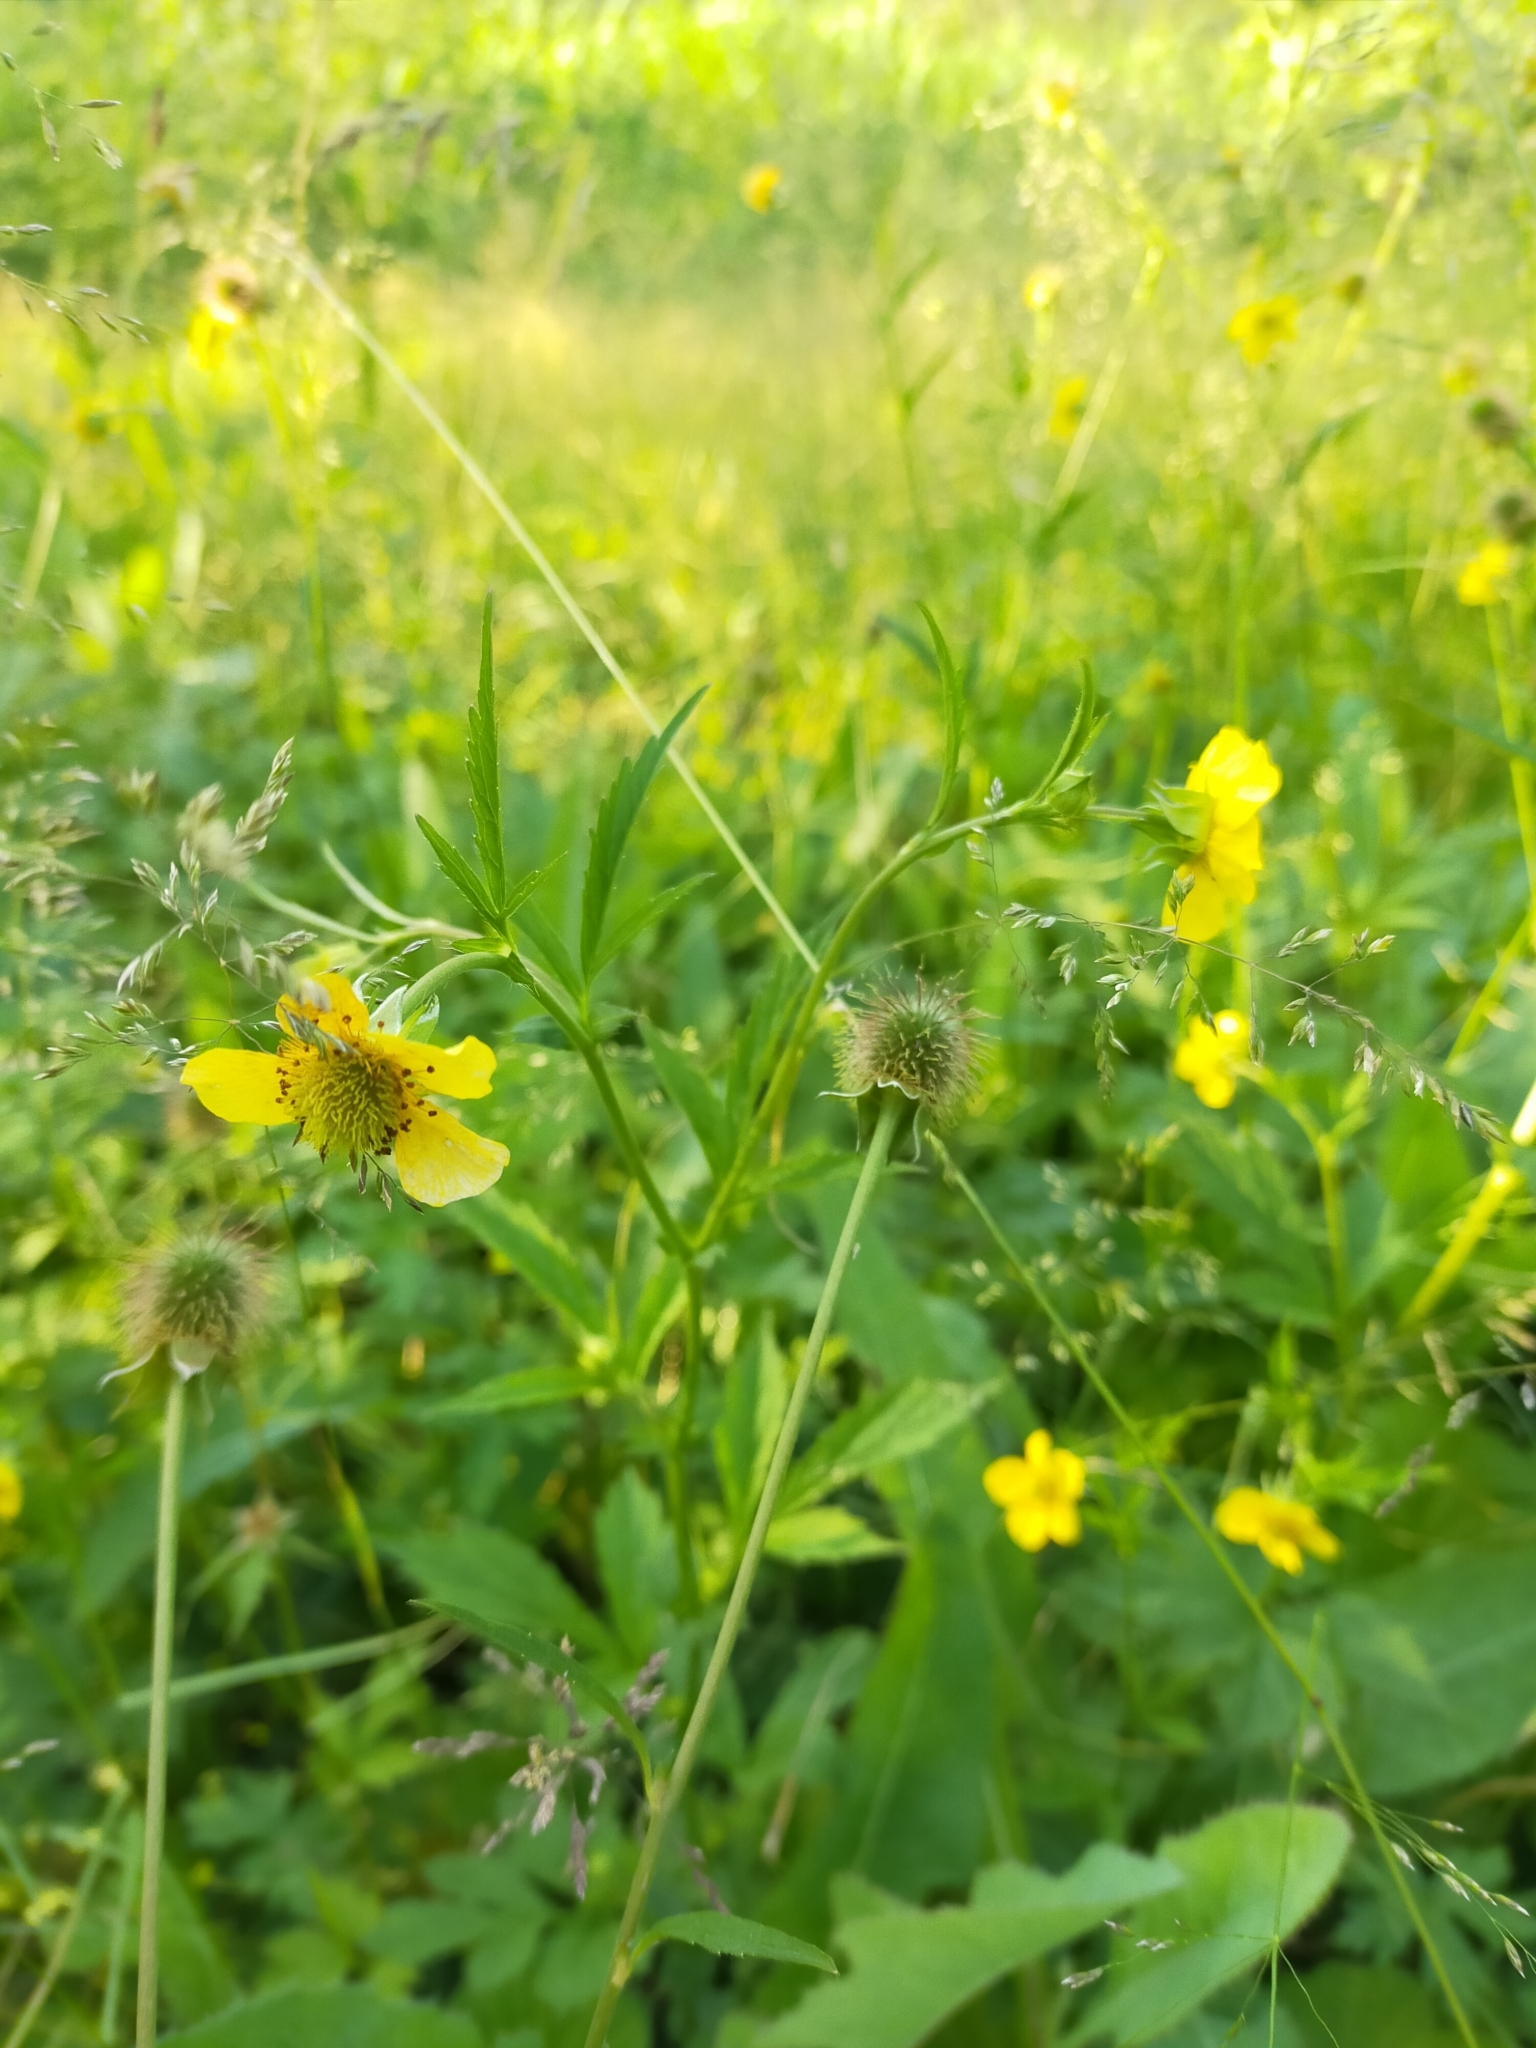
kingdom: Plantae
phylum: Tracheophyta
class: Magnoliopsida
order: Rosales
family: Rosaceae
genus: Geum
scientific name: Geum aleppicum
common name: Yellow avens
